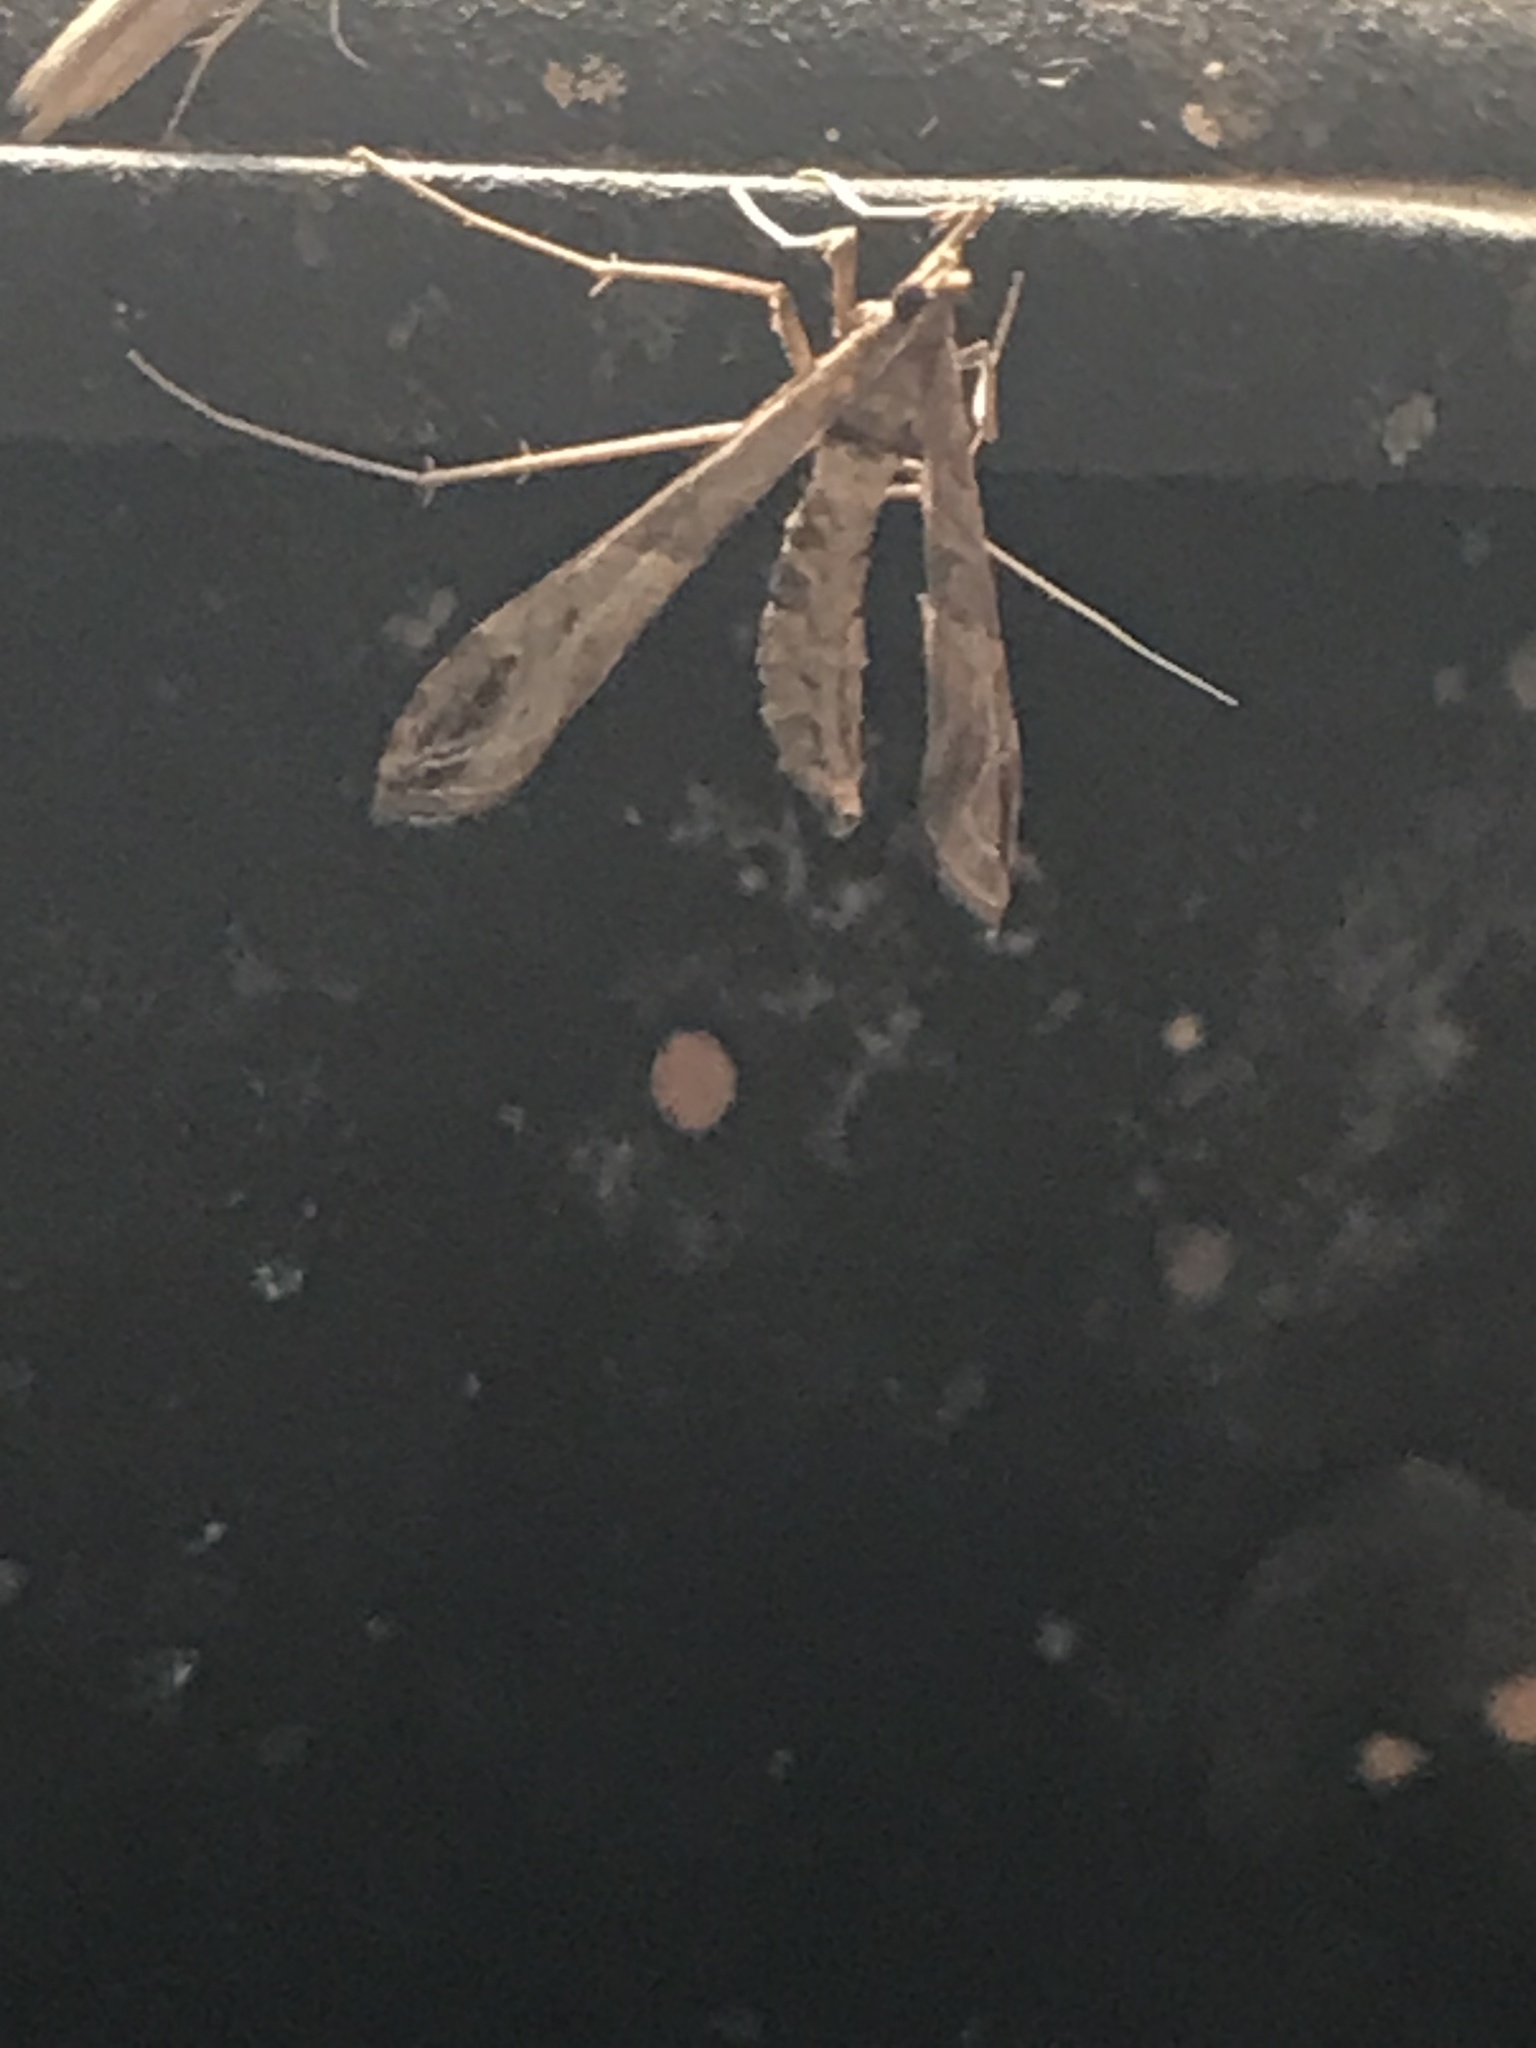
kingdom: Animalia
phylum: Arthropoda
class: Insecta
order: Lepidoptera
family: Crambidae
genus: Lineodes
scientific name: Lineodes integra
